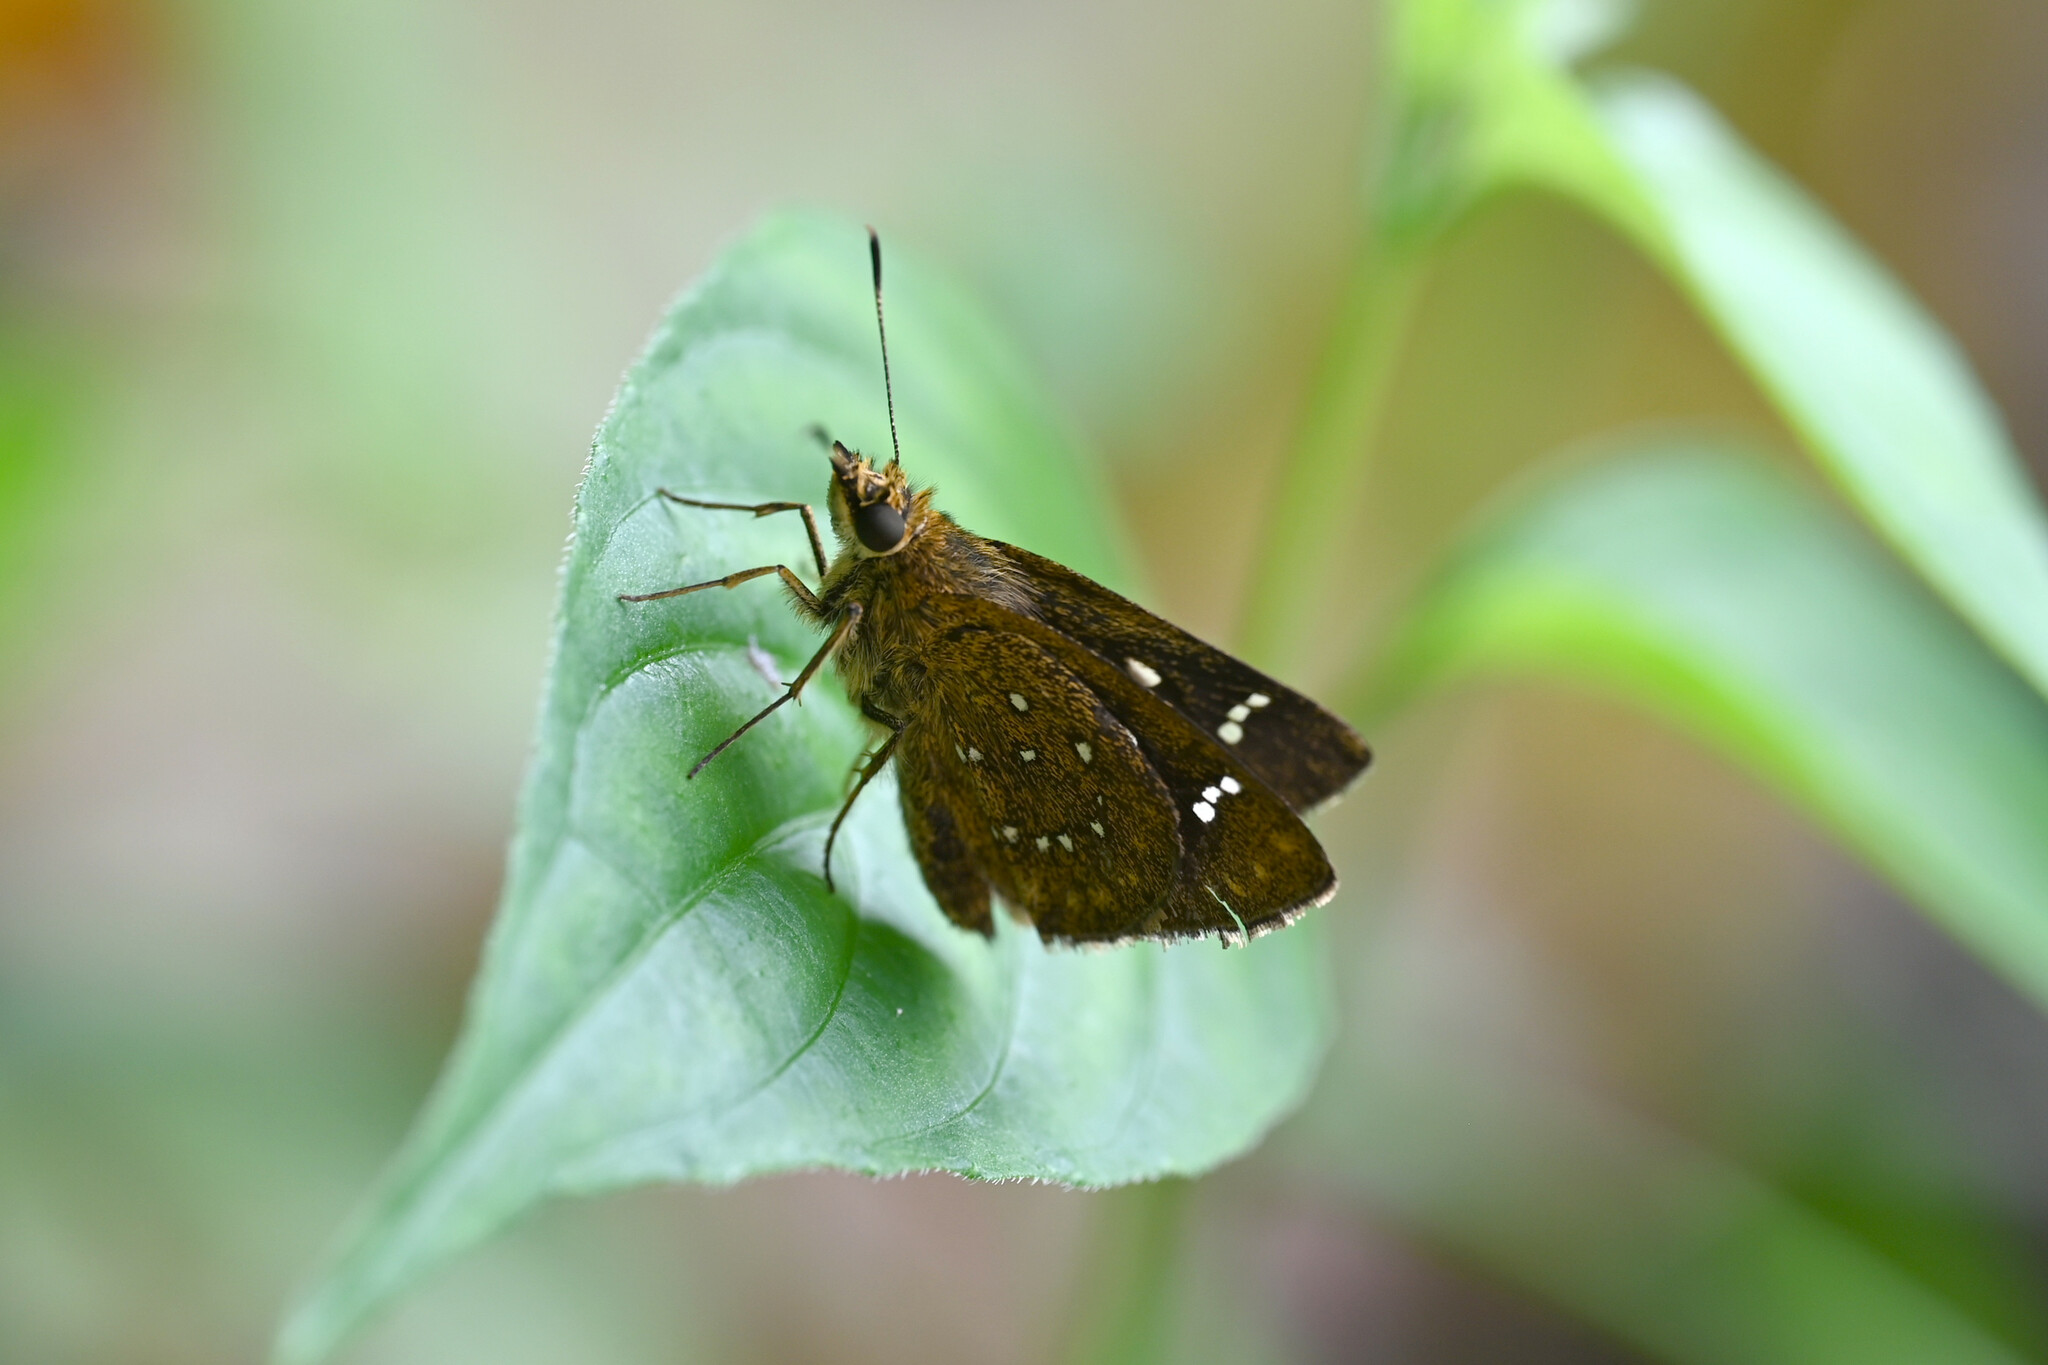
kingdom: Animalia
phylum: Arthropoda
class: Insecta
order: Lepidoptera
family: Hesperiidae
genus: Arnetta
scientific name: Arnetta atkinsoni
